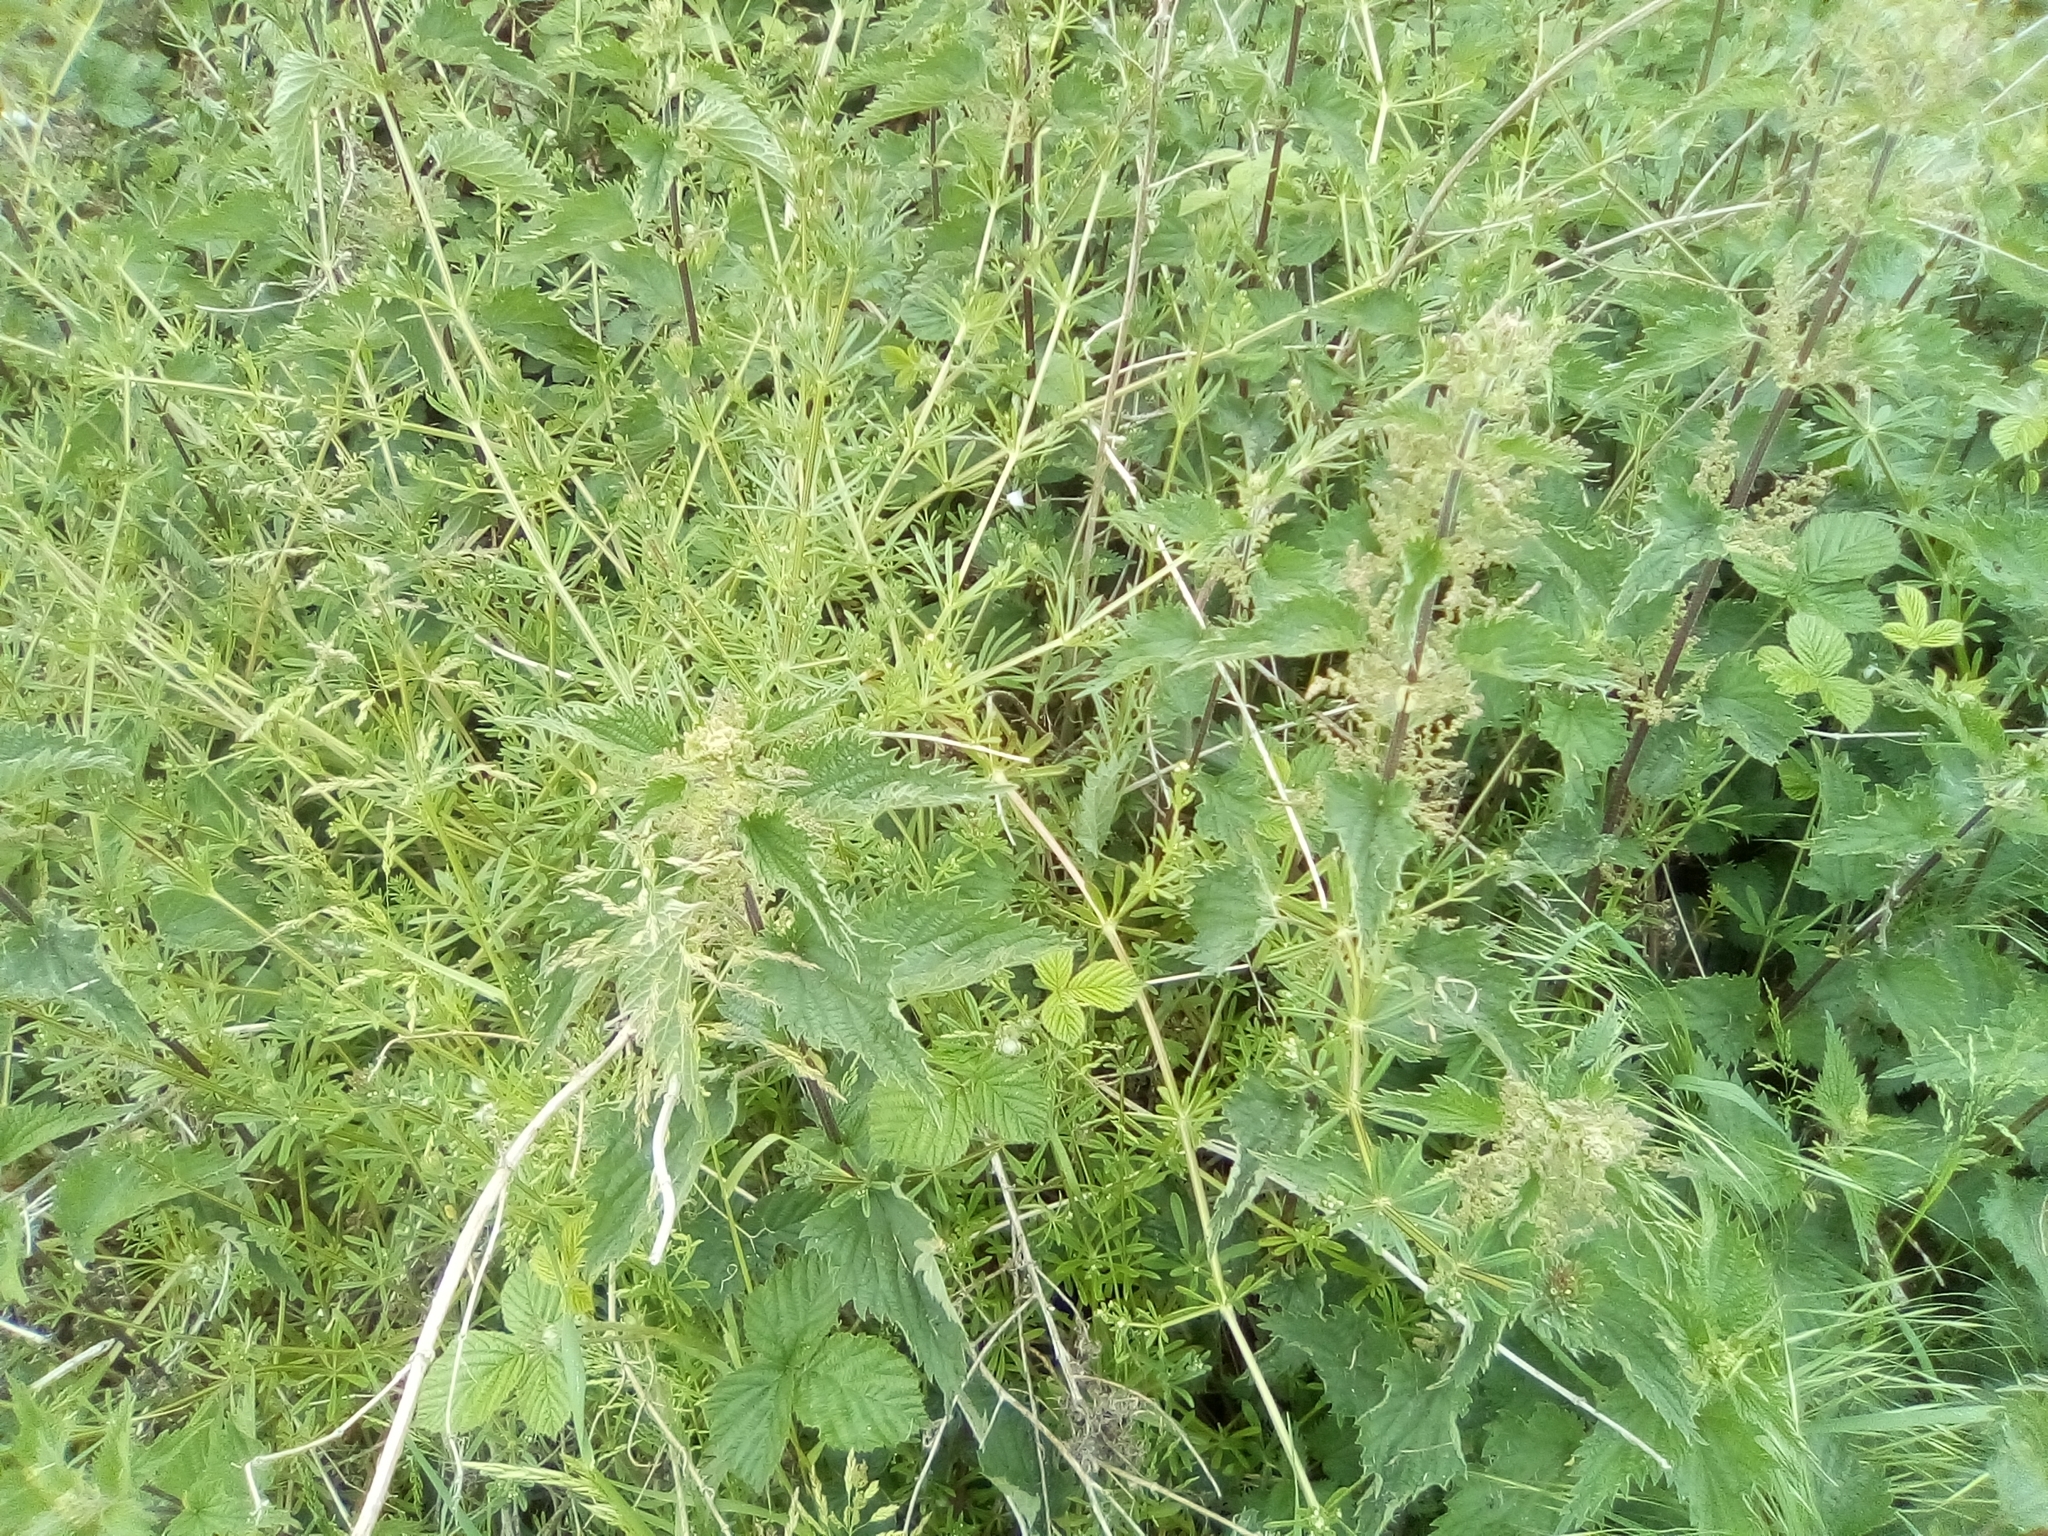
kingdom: Plantae
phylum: Tracheophyta
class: Magnoliopsida
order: Gentianales
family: Rubiaceae
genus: Galium
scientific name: Galium aparine
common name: Cleavers
